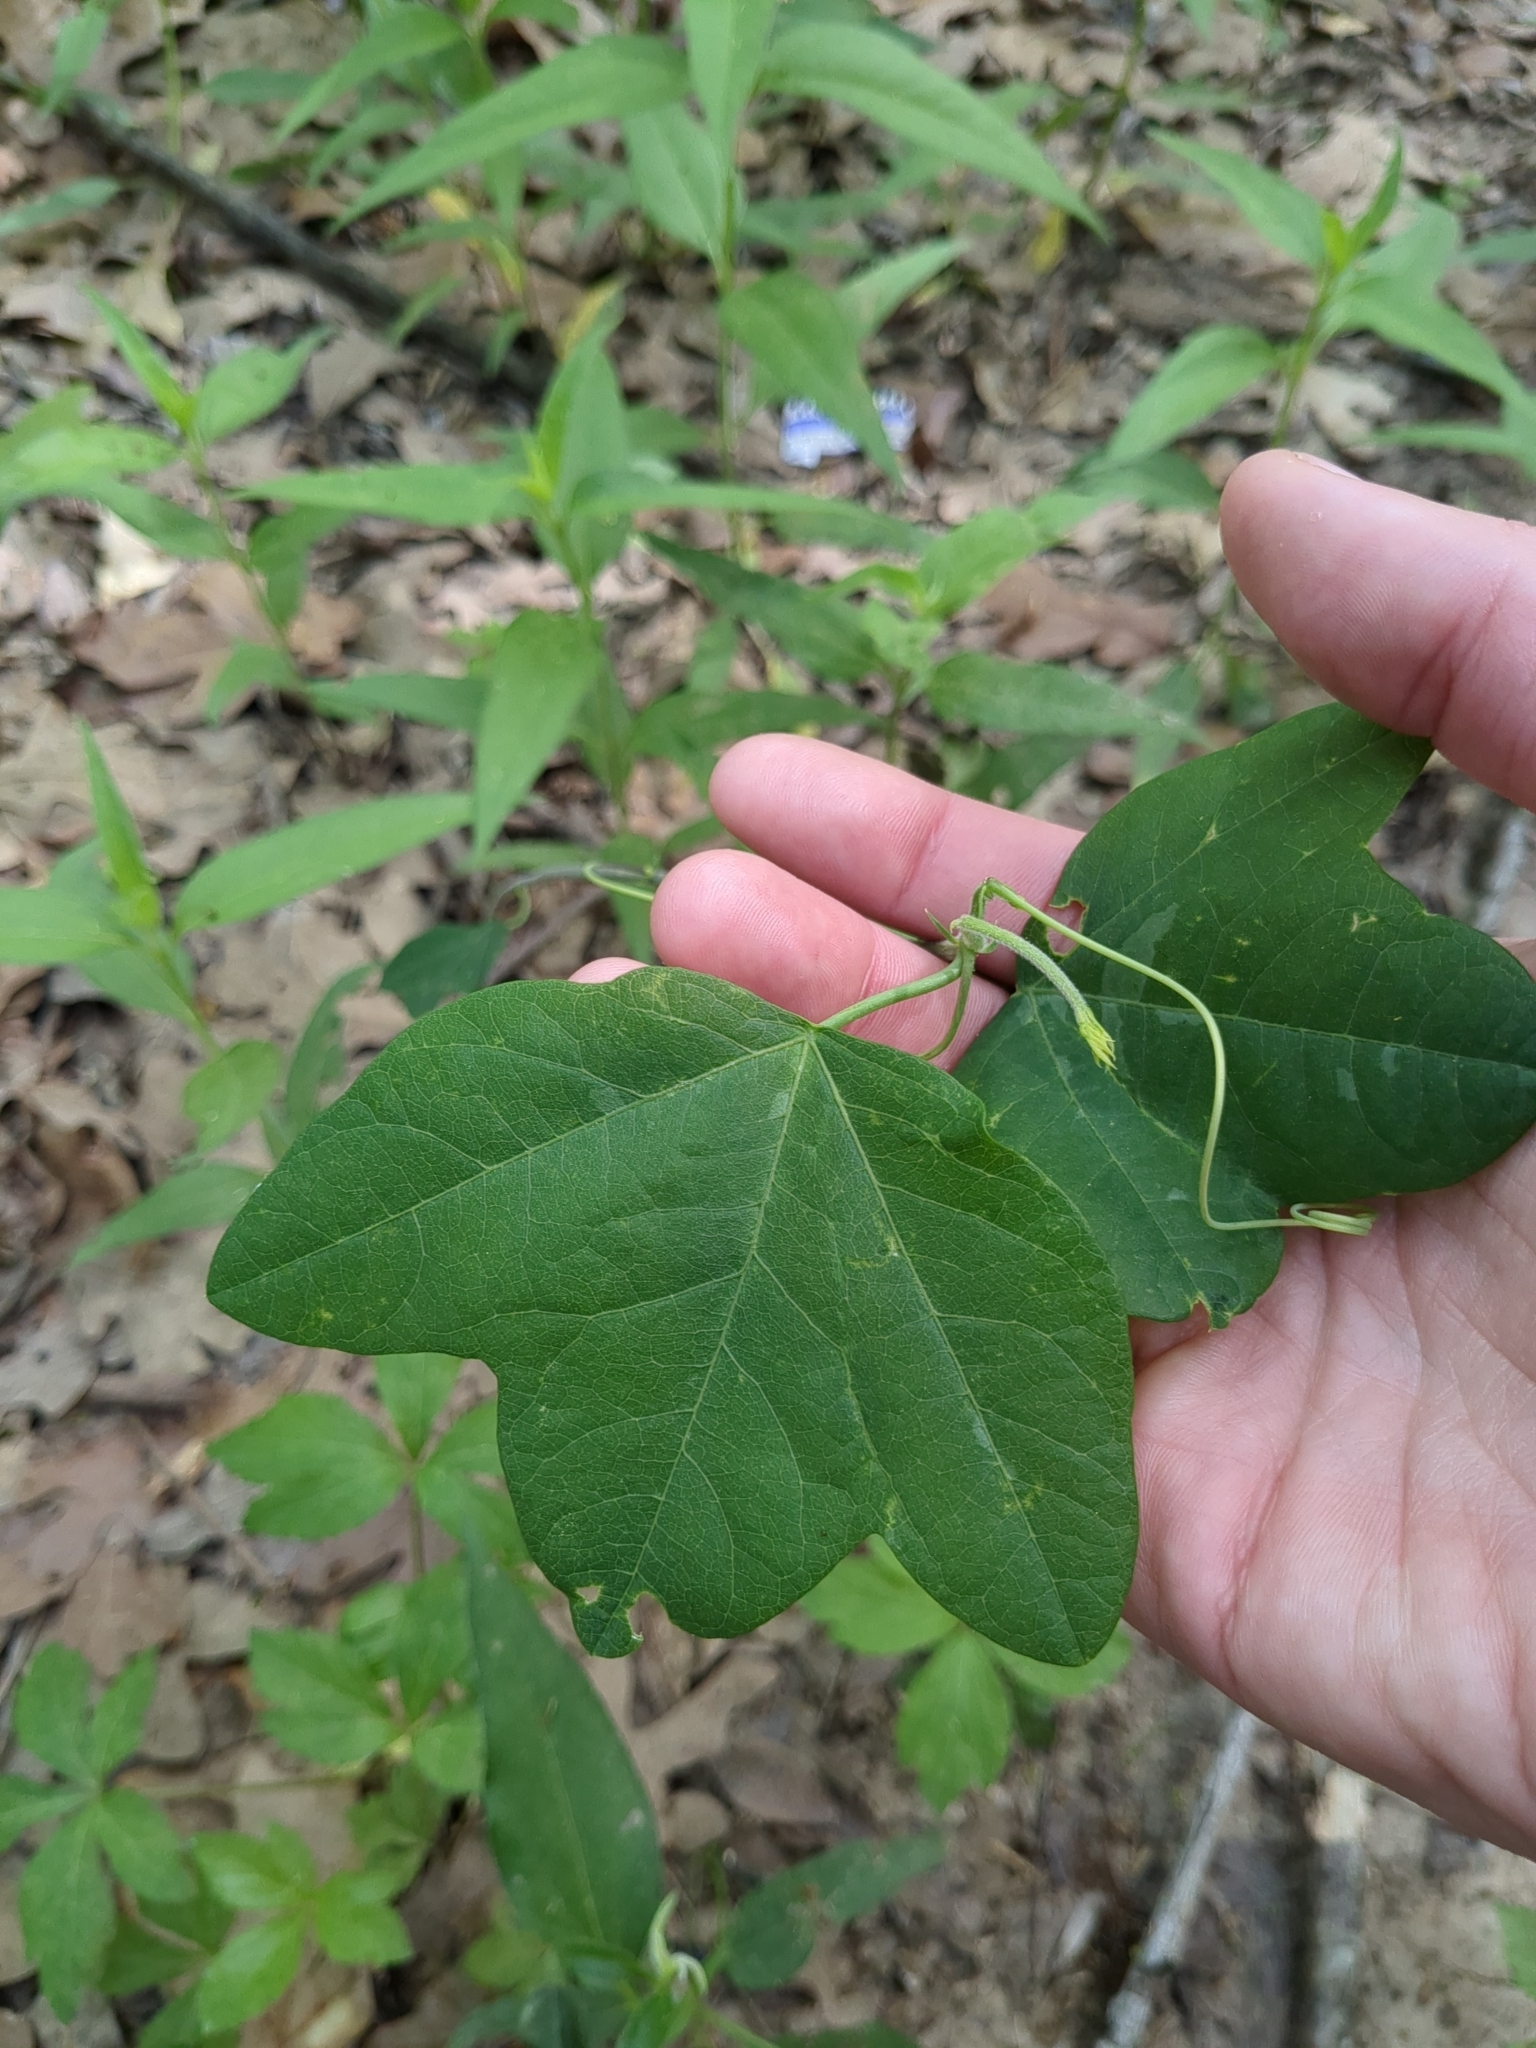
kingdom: Plantae
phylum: Tracheophyta
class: Magnoliopsida
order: Malpighiales
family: Passifloraceae
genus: Passiflora
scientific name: Passiflora lutea
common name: Yellow passionflower
